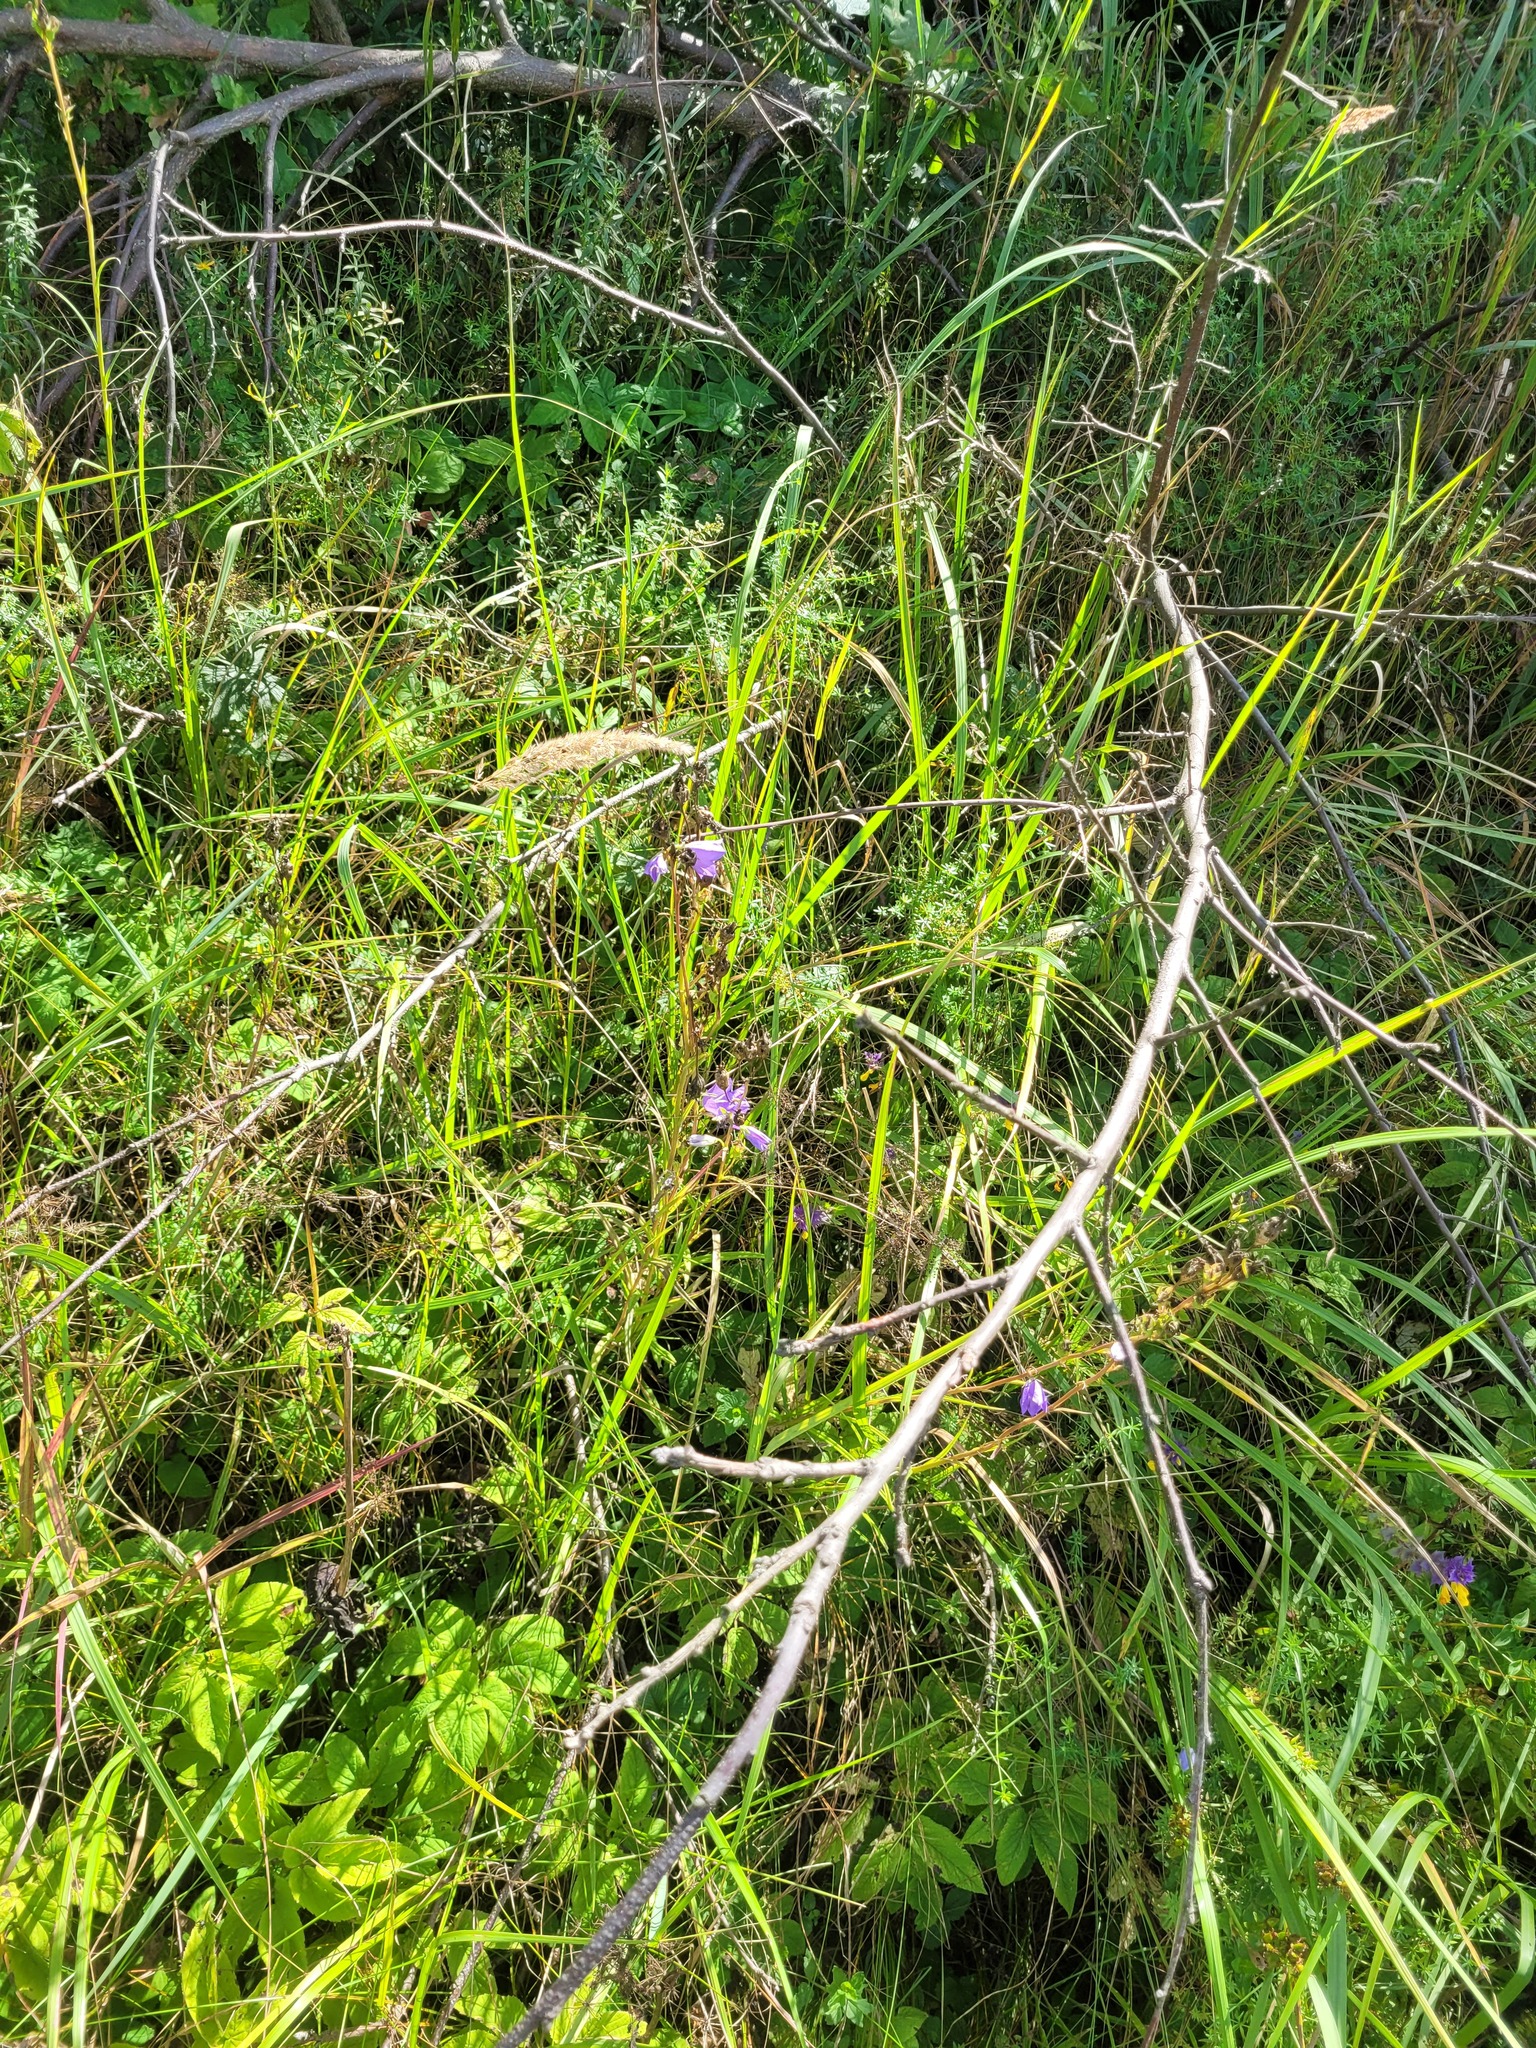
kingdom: Plantae
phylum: Tracheophyta
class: Magnoliopsida
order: Asterales
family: Campanulaceae
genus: Campanula
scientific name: Campanula persicifolia
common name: Peach-leaved bellflower
